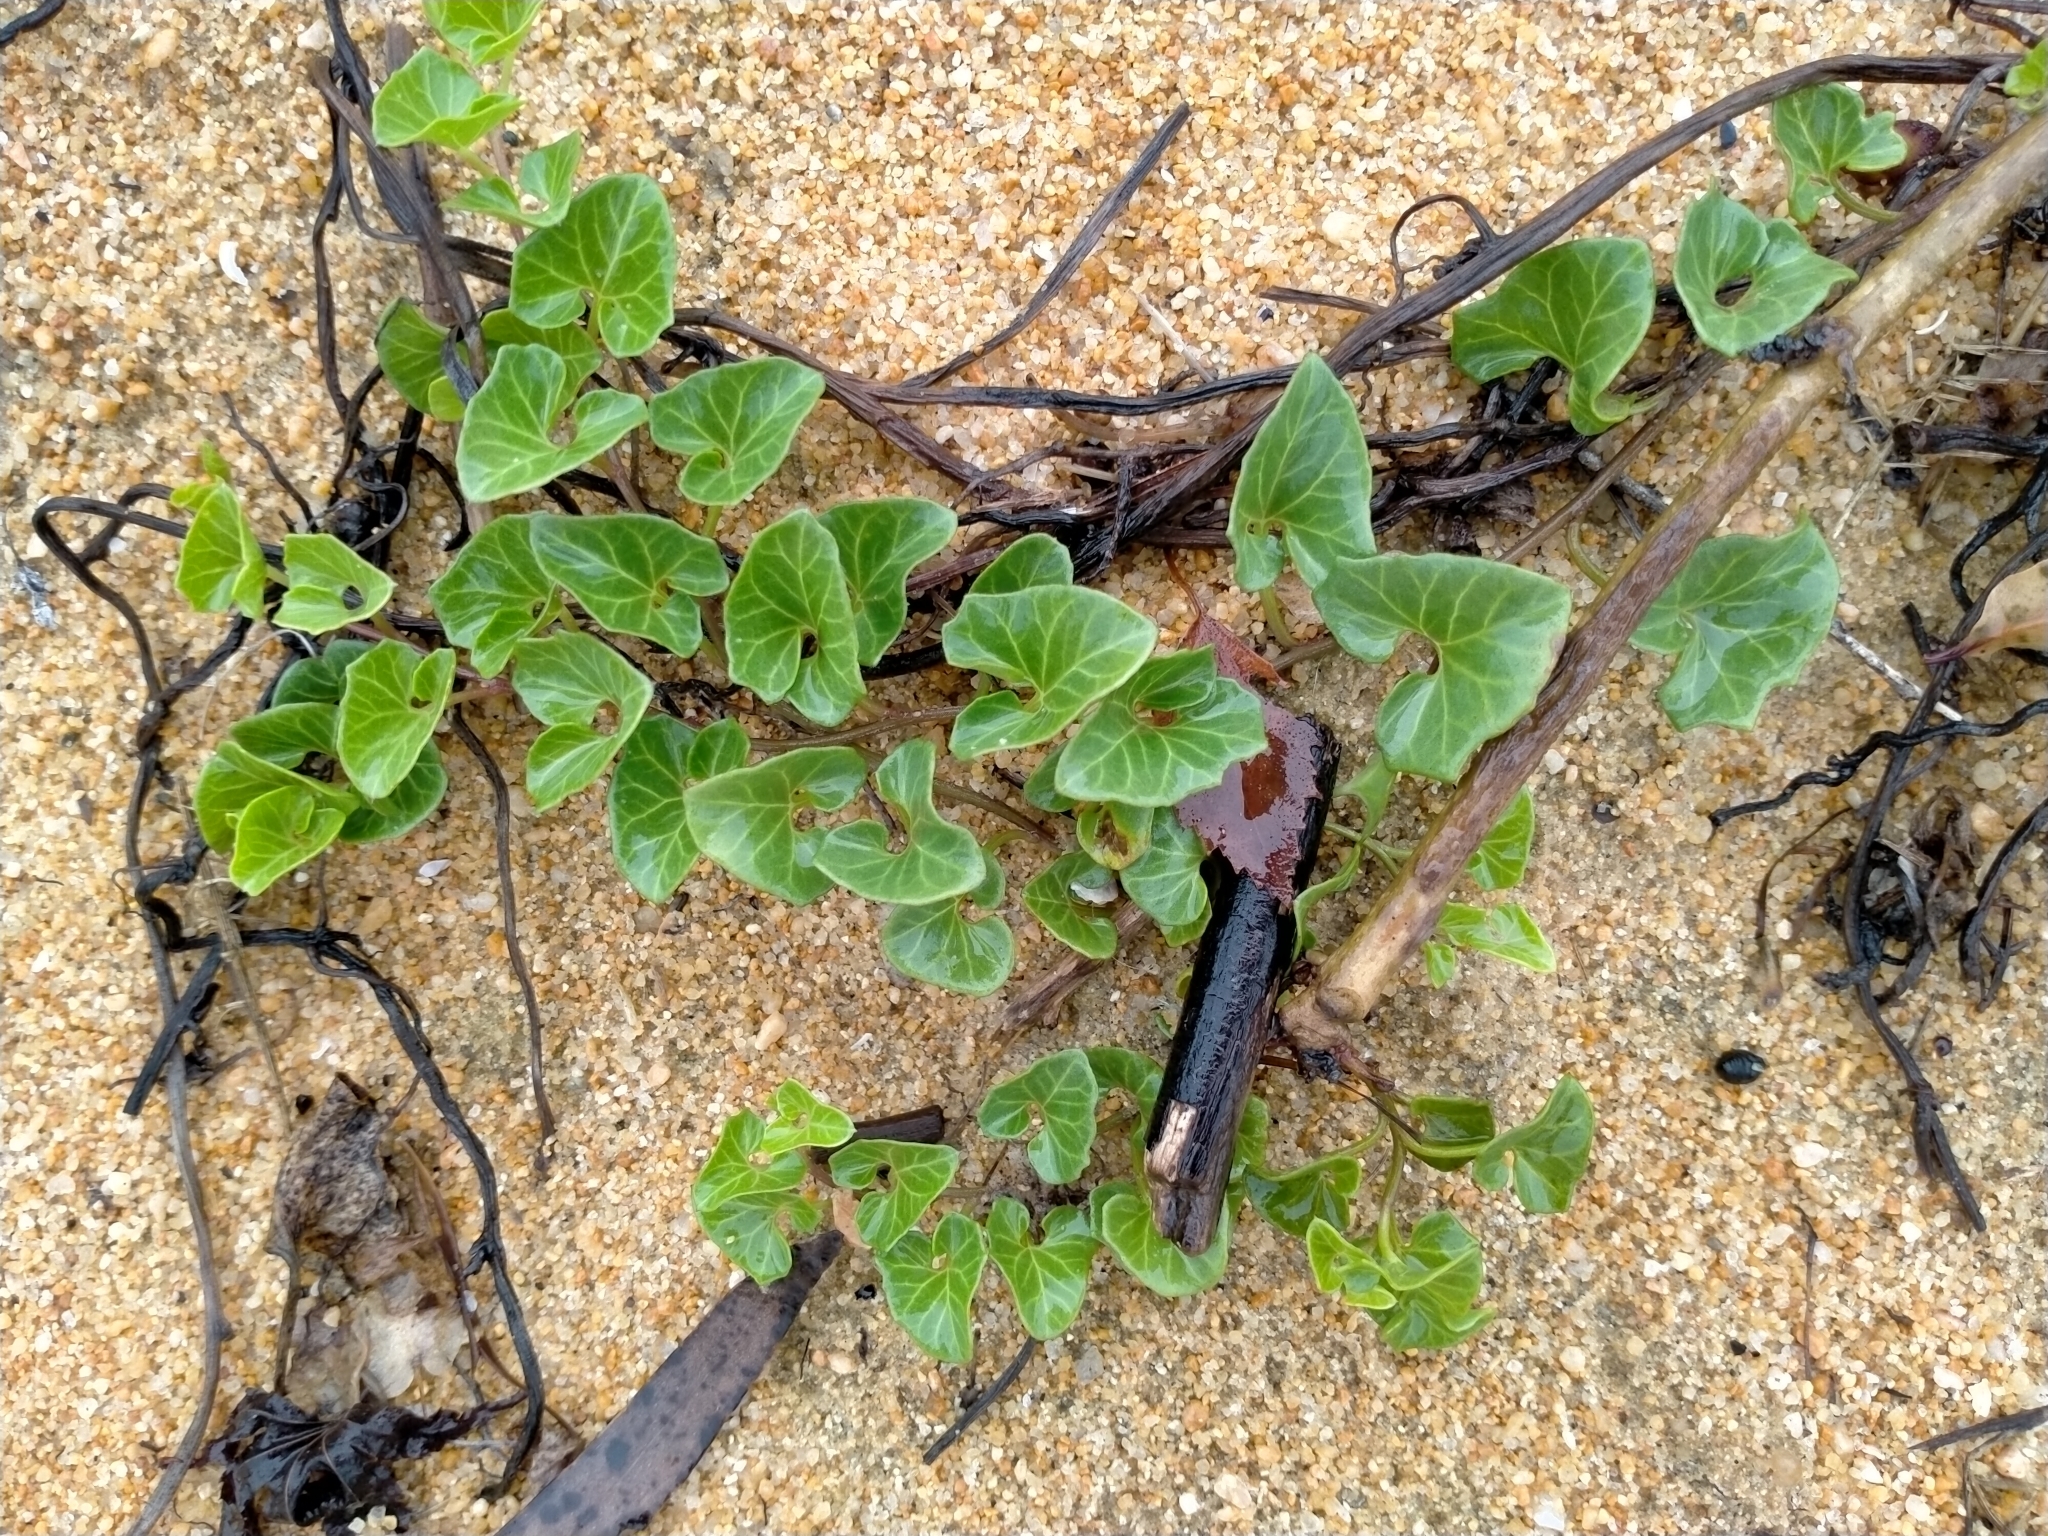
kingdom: Plantae
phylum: Tracheophyta
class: Magnoliopsida
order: Solanales
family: Convolvulaceae
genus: Calystegia
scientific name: Calystegia soldanella
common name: Sea bindweed
